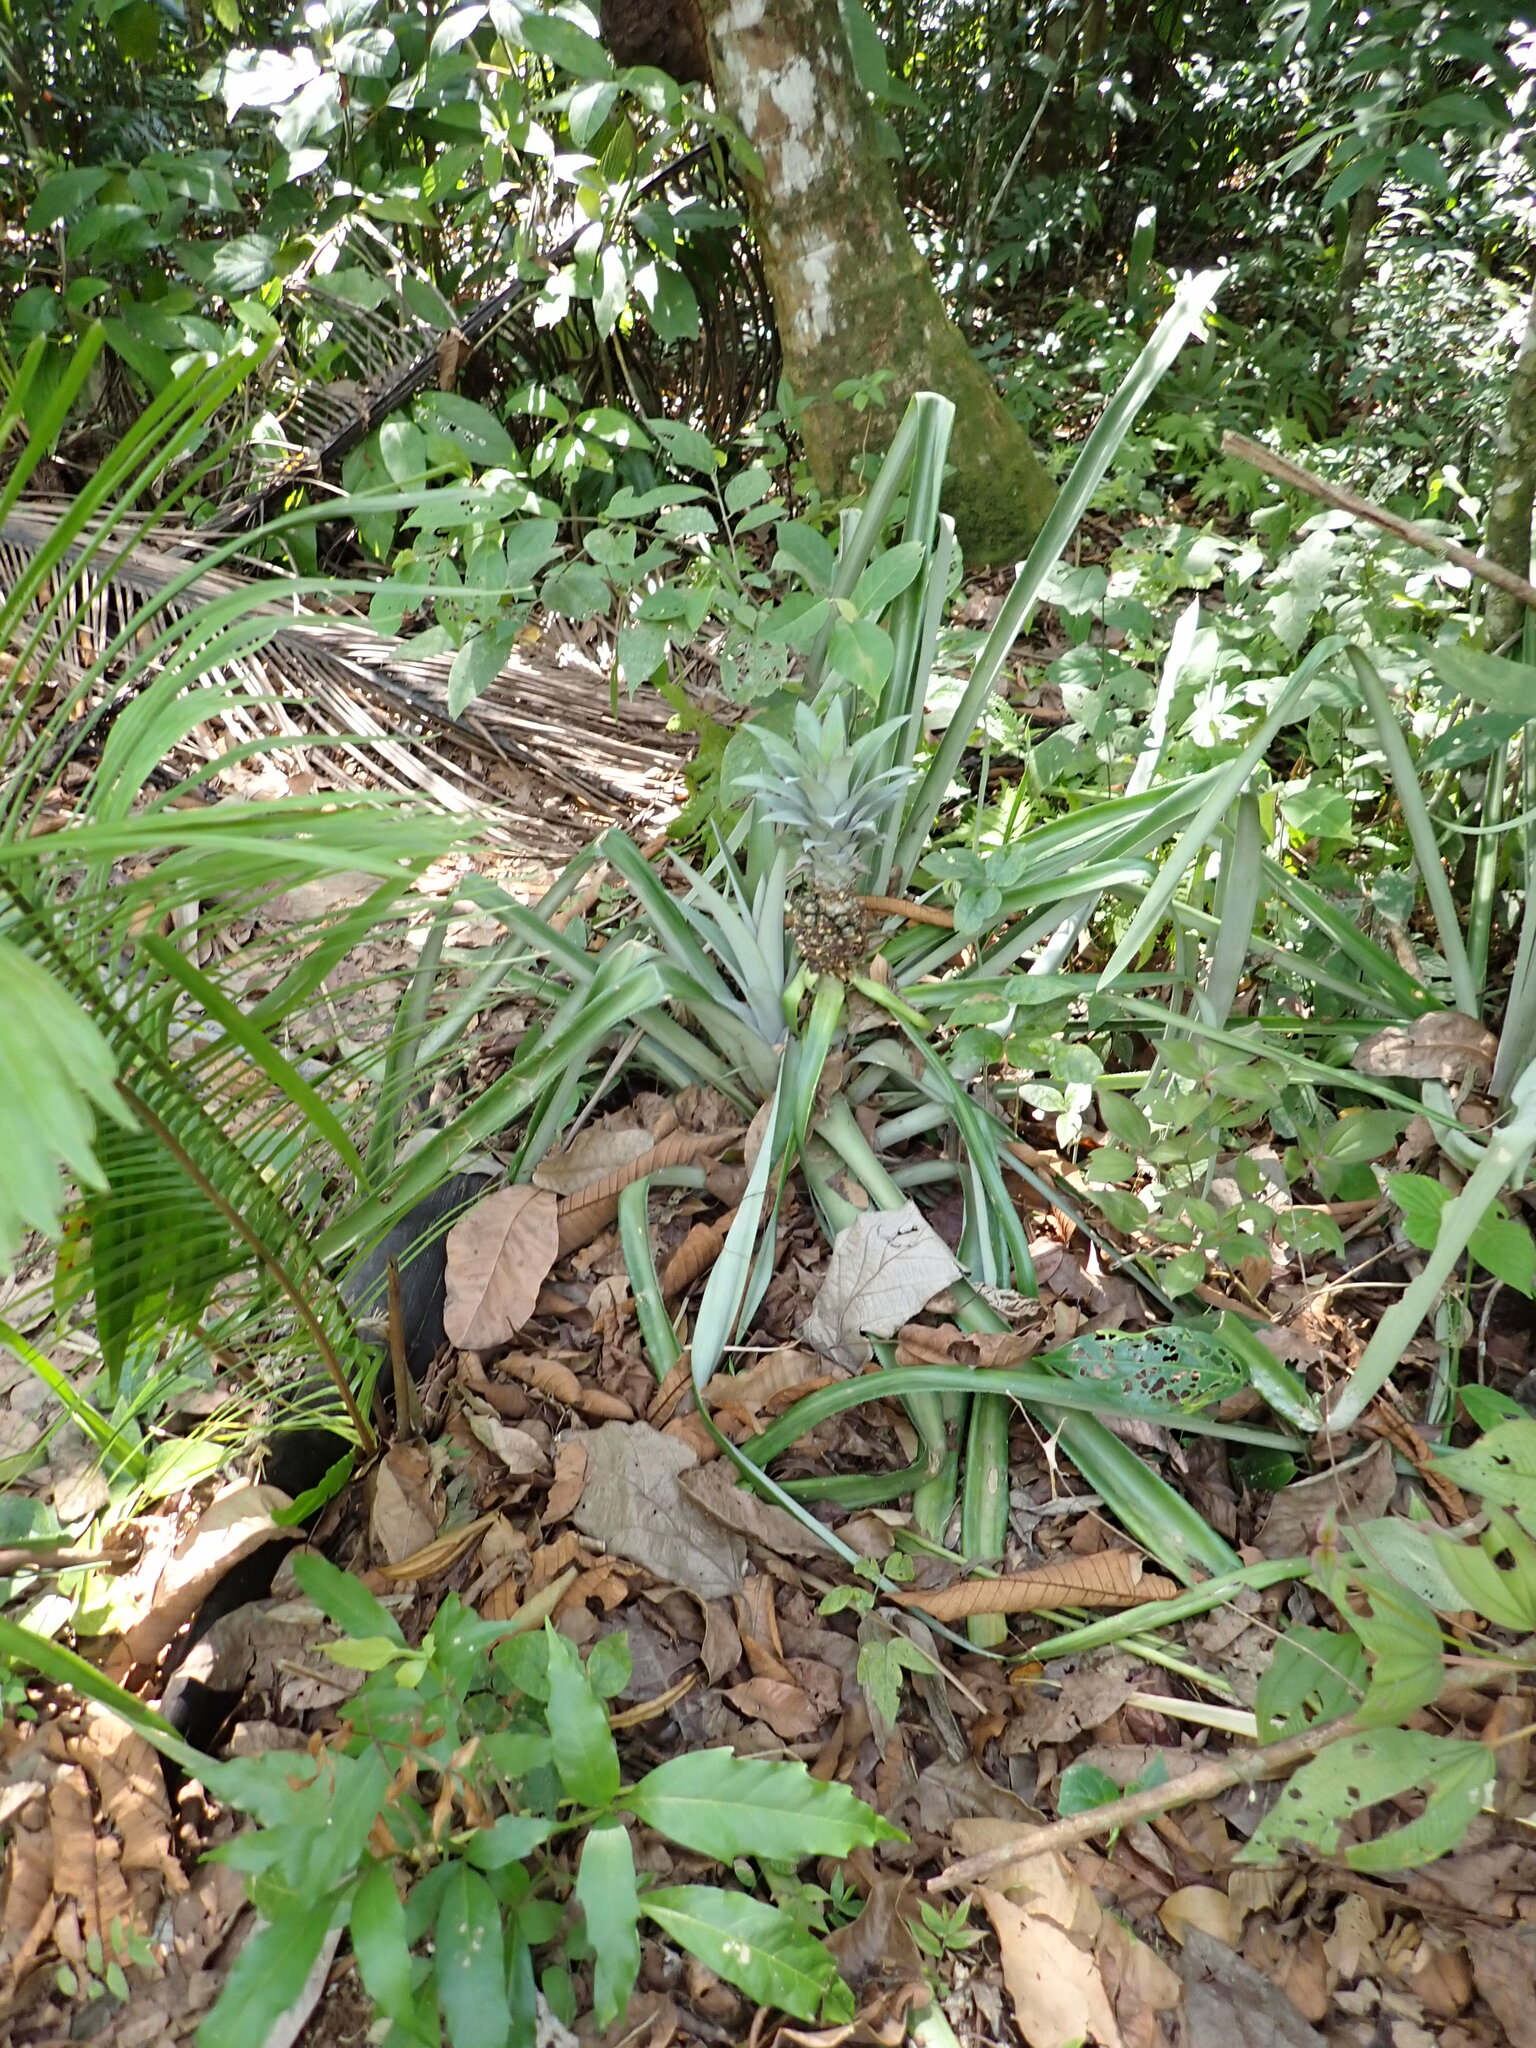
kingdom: Plantae
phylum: Tracheophyta
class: Liliopsida
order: Poales
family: Bromeliaceae
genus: Ananas
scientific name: Ananas comosus
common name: Pineapple
